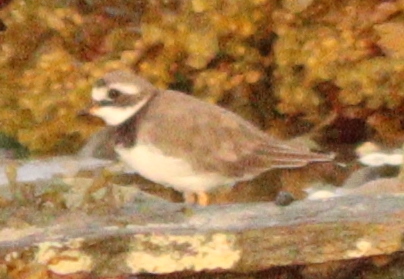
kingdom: Animalia
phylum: Chordata
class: Aves
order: Charadriiformes
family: Charadriidae
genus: Charadrius
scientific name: Charadrius hiaticula
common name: Common ringed plover
